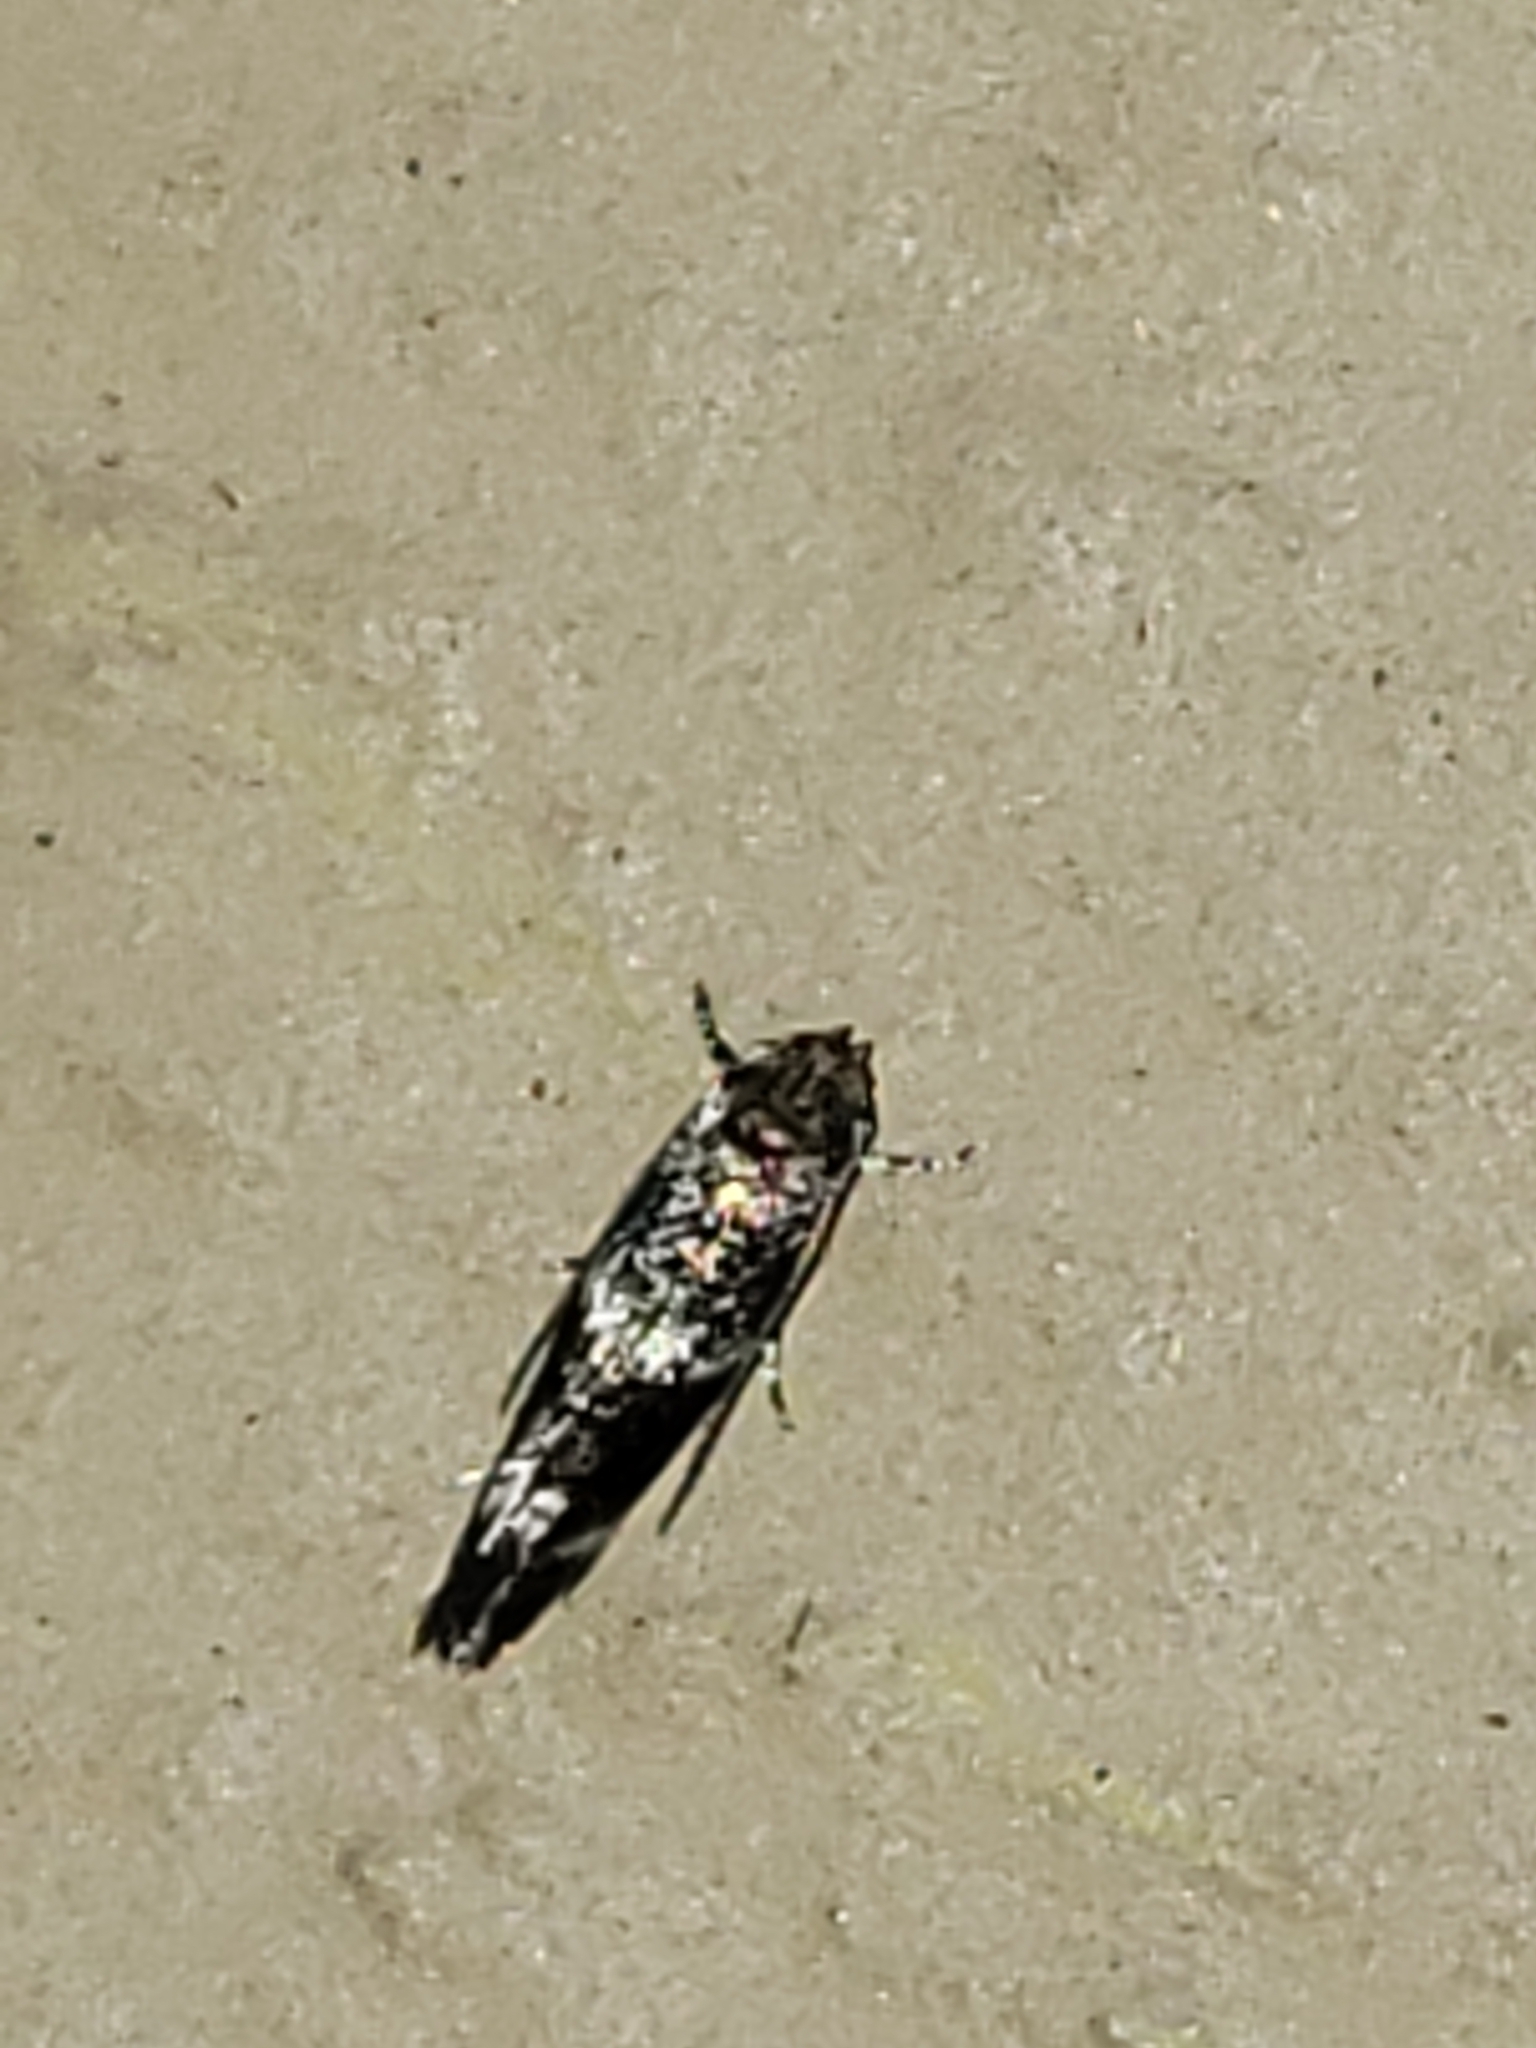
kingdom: Animalia
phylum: Arthropoda
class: Insecta
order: Lepidoptera
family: Elachistidae
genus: Elachista
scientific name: Elachista illectella
